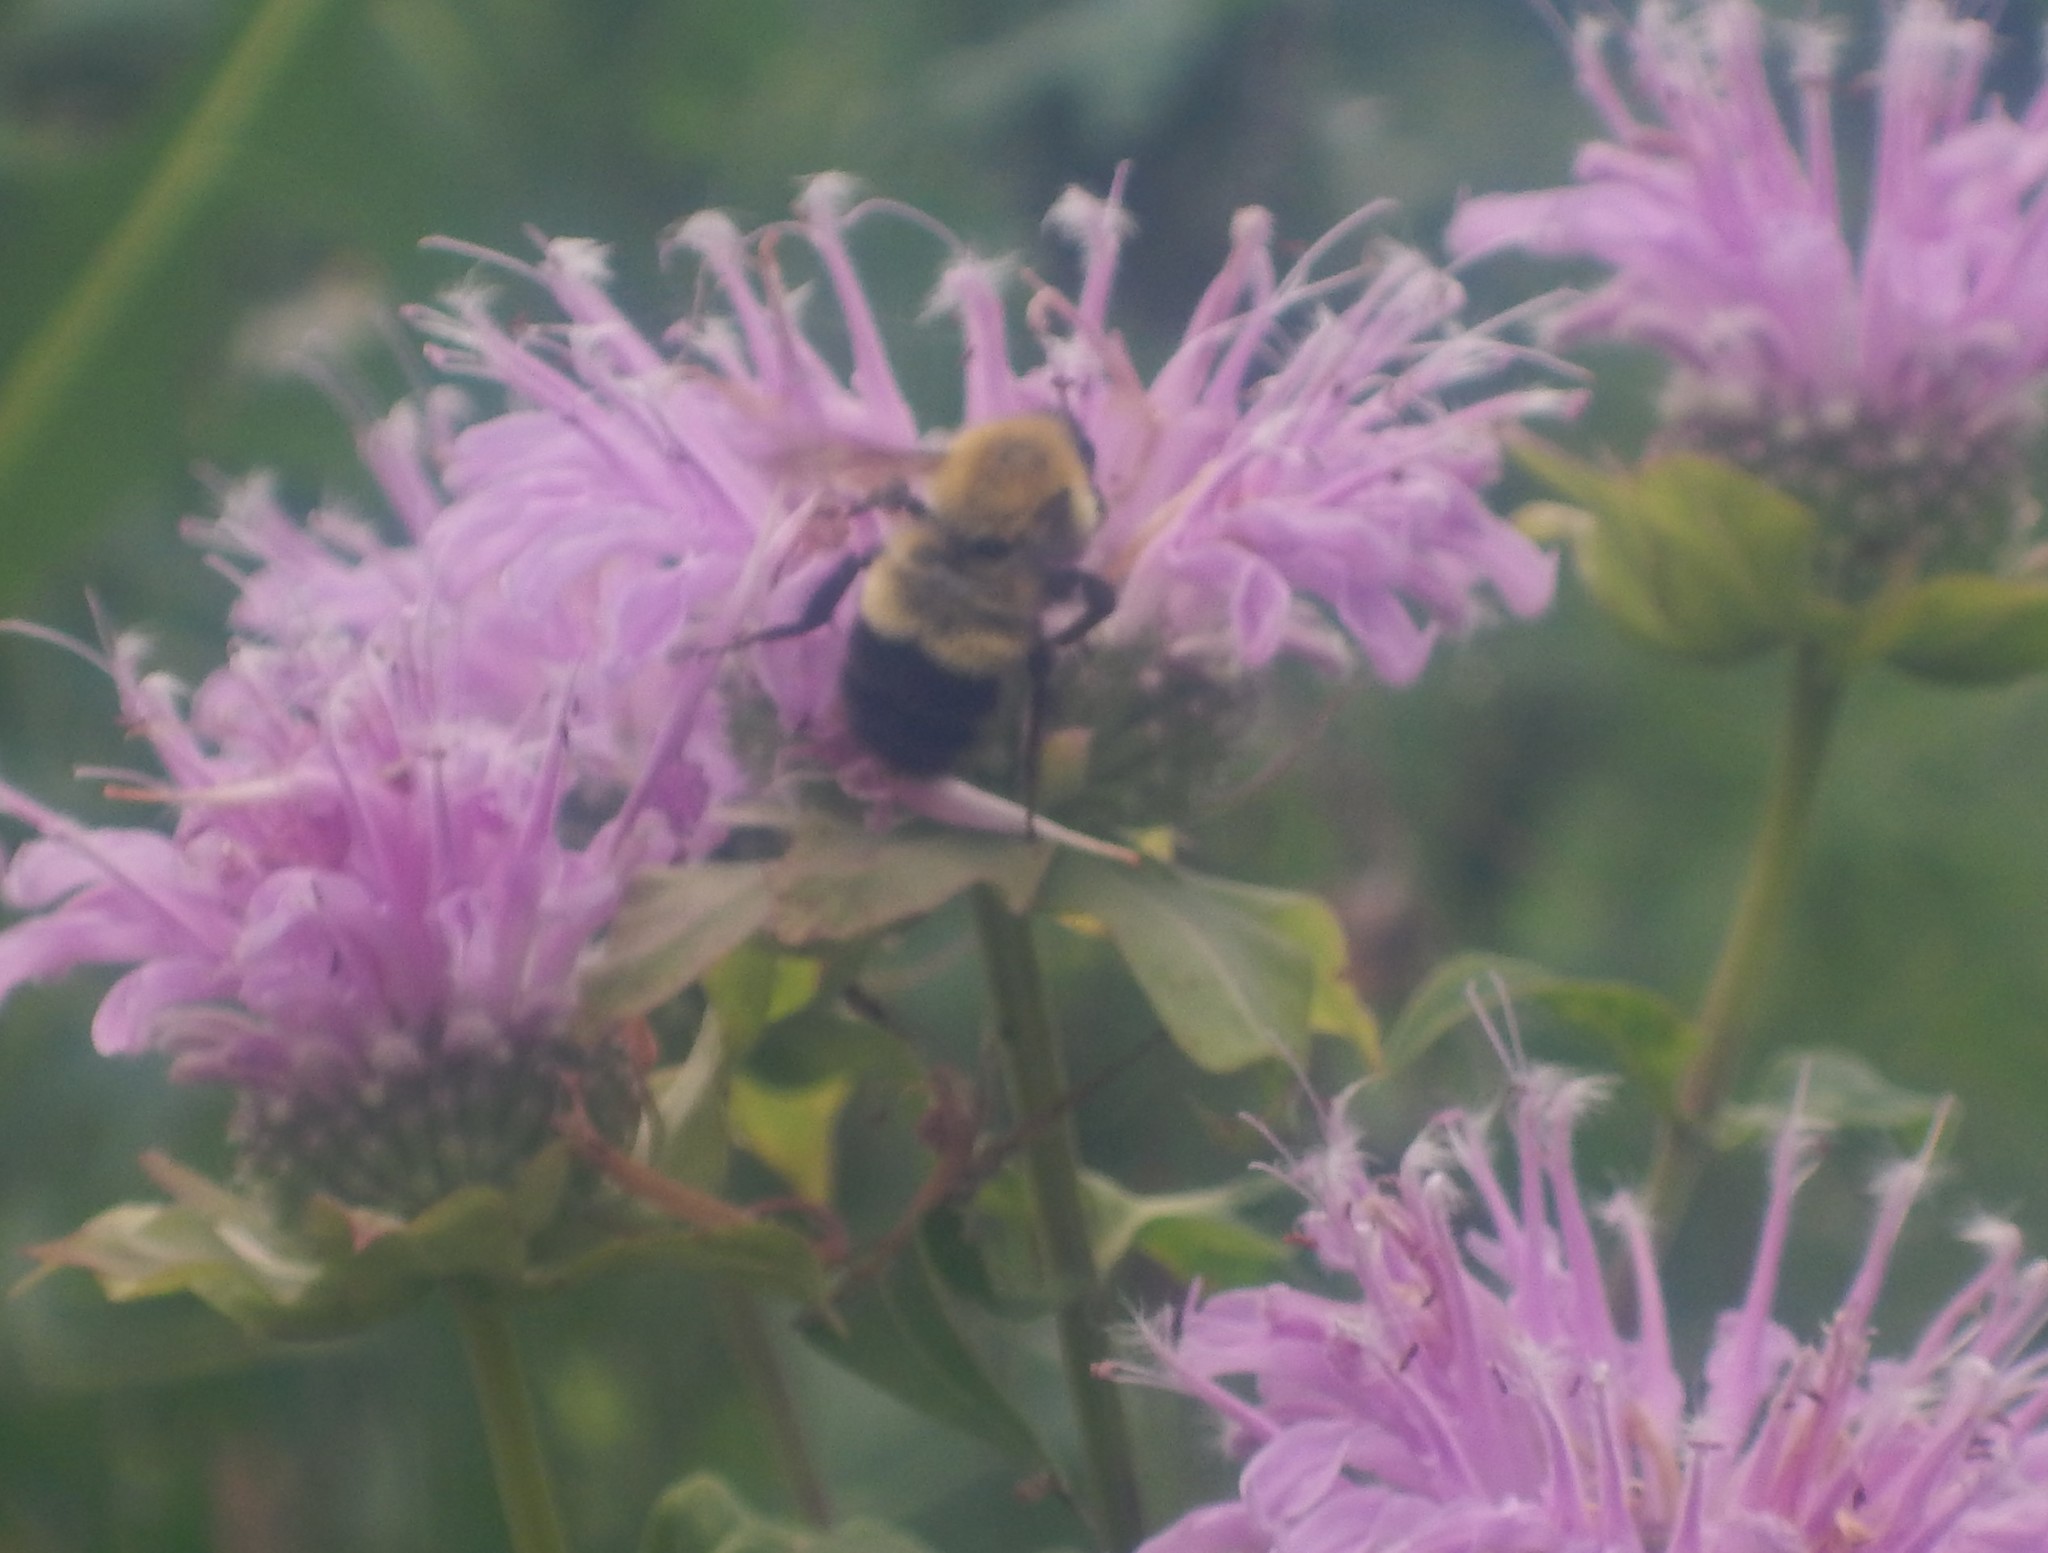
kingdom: Animalia
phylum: Arthropoda
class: Insecta
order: Hymenoptera
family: Apidae
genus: Bombus
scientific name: Bombus perplexus
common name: Confusing bumble bee
